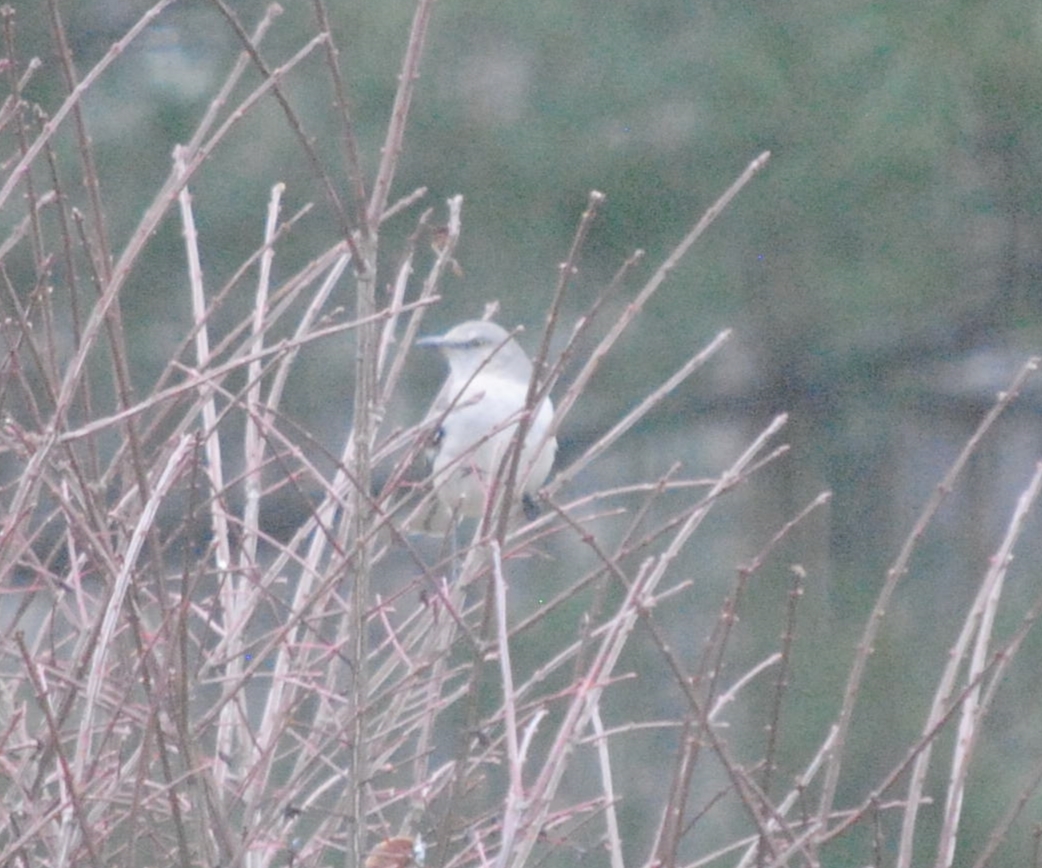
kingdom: Animalia
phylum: Chordata
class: Aves
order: Passeriformes
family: Mimidae
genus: Mimus
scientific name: Mimus polyglottos
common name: Northern mockingbird
